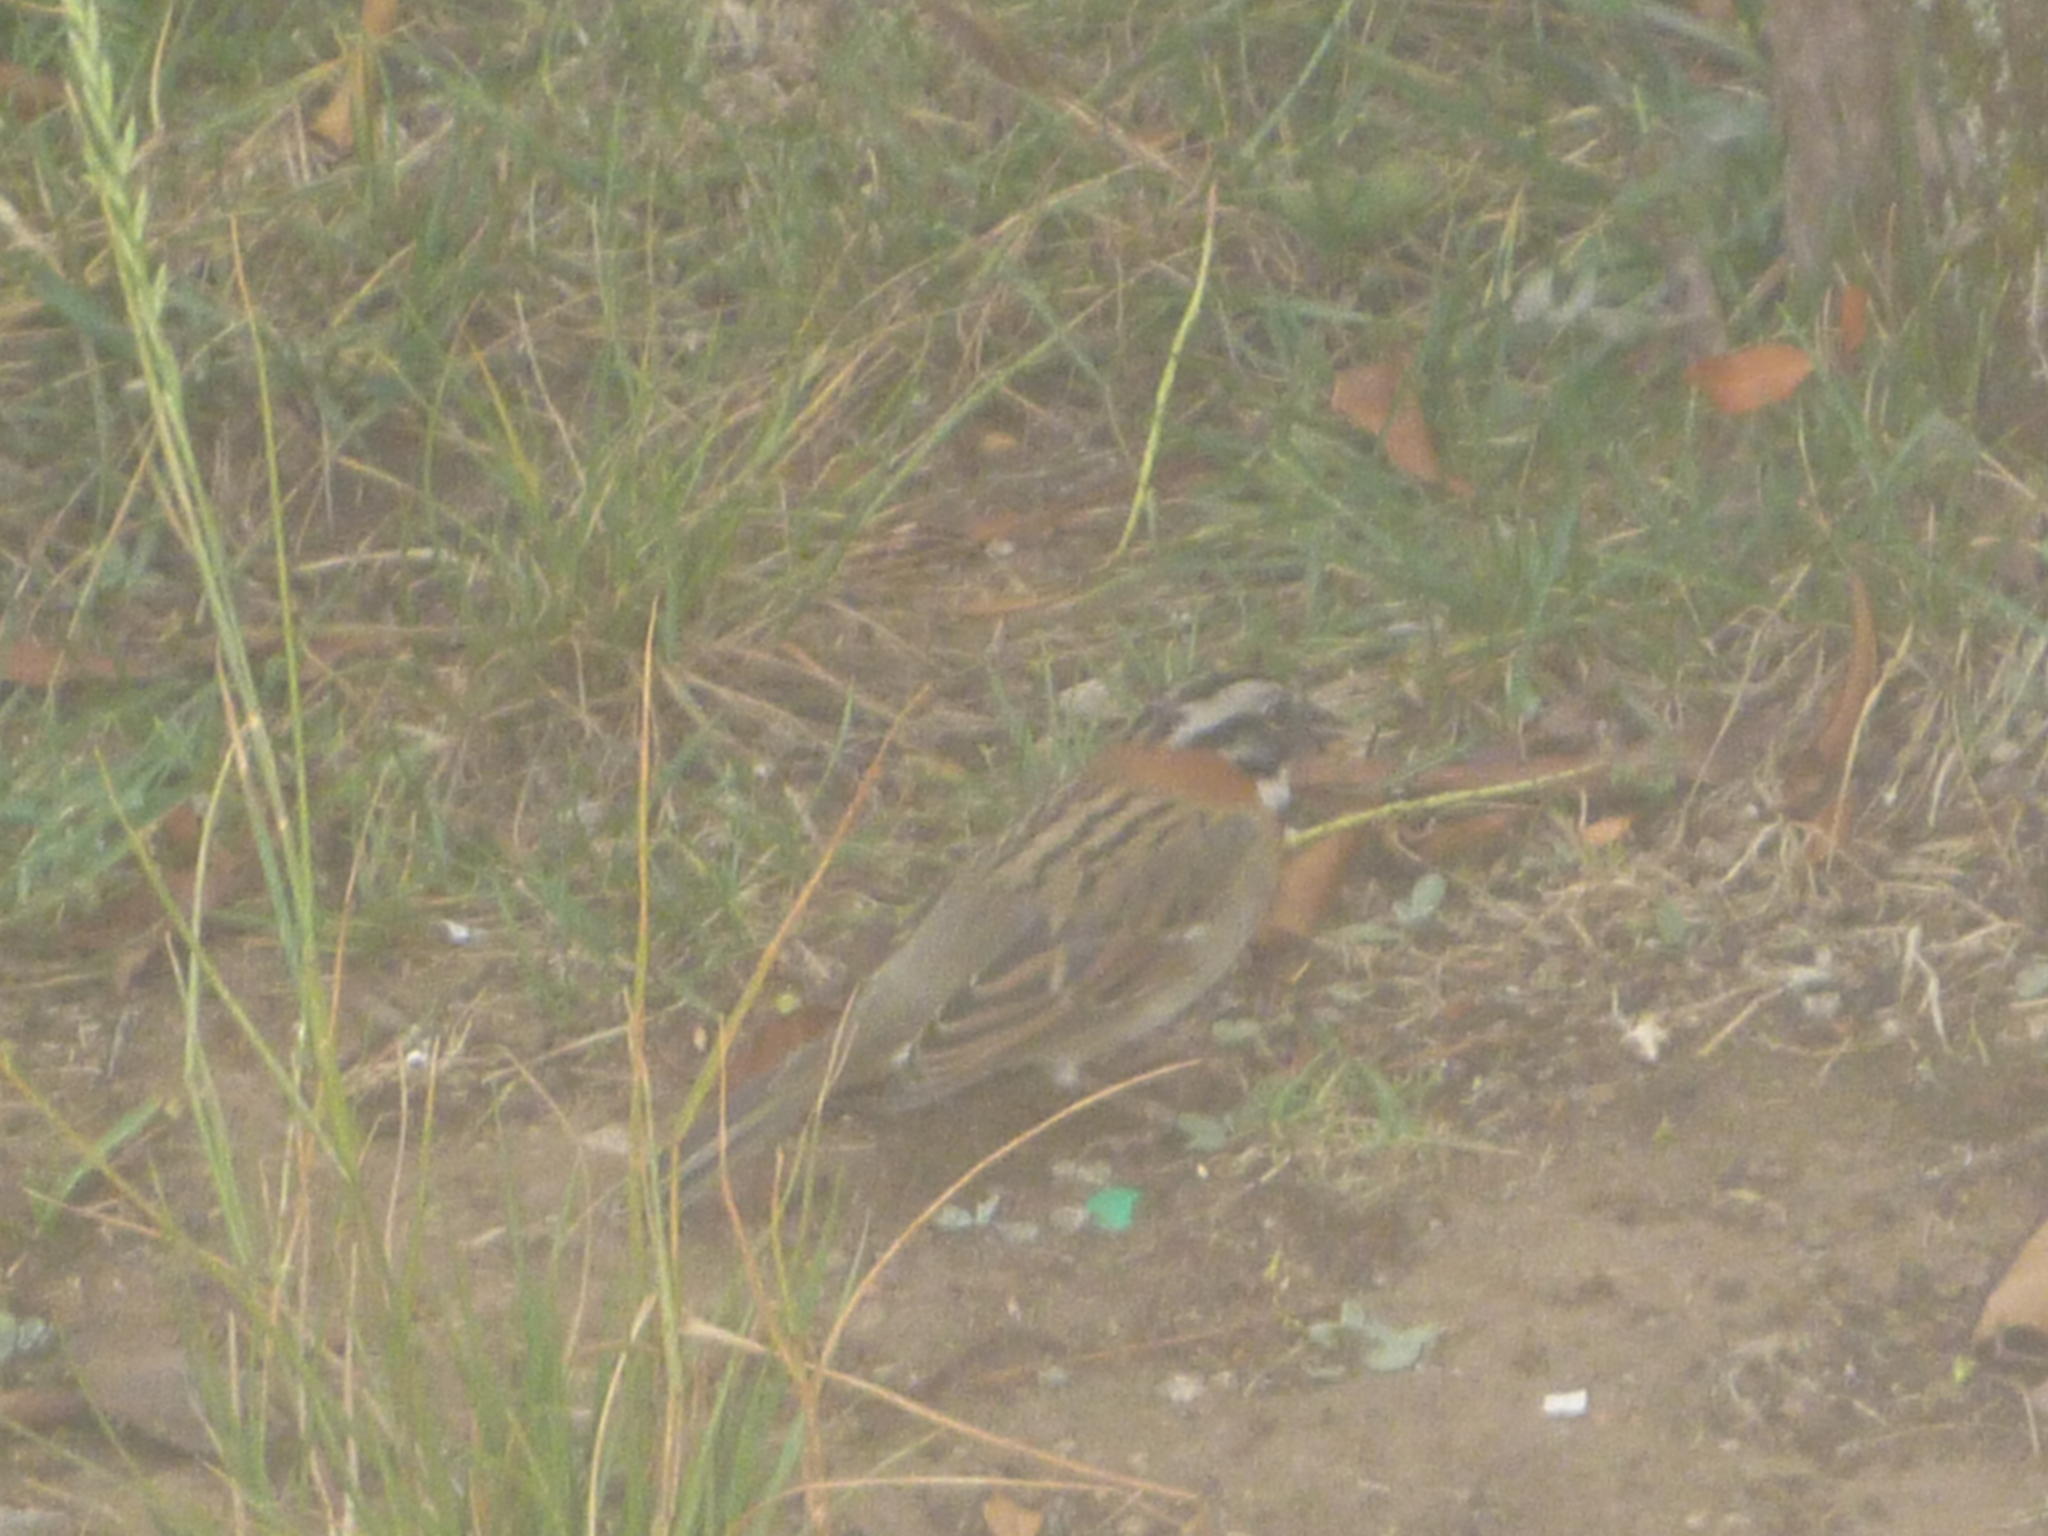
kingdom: Animalia
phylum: Chordata
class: Aves
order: Passeriformes
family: Passerellidae
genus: Zonotrichia
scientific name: Zonotrichia capensis
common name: Rufous-collared sparrow
